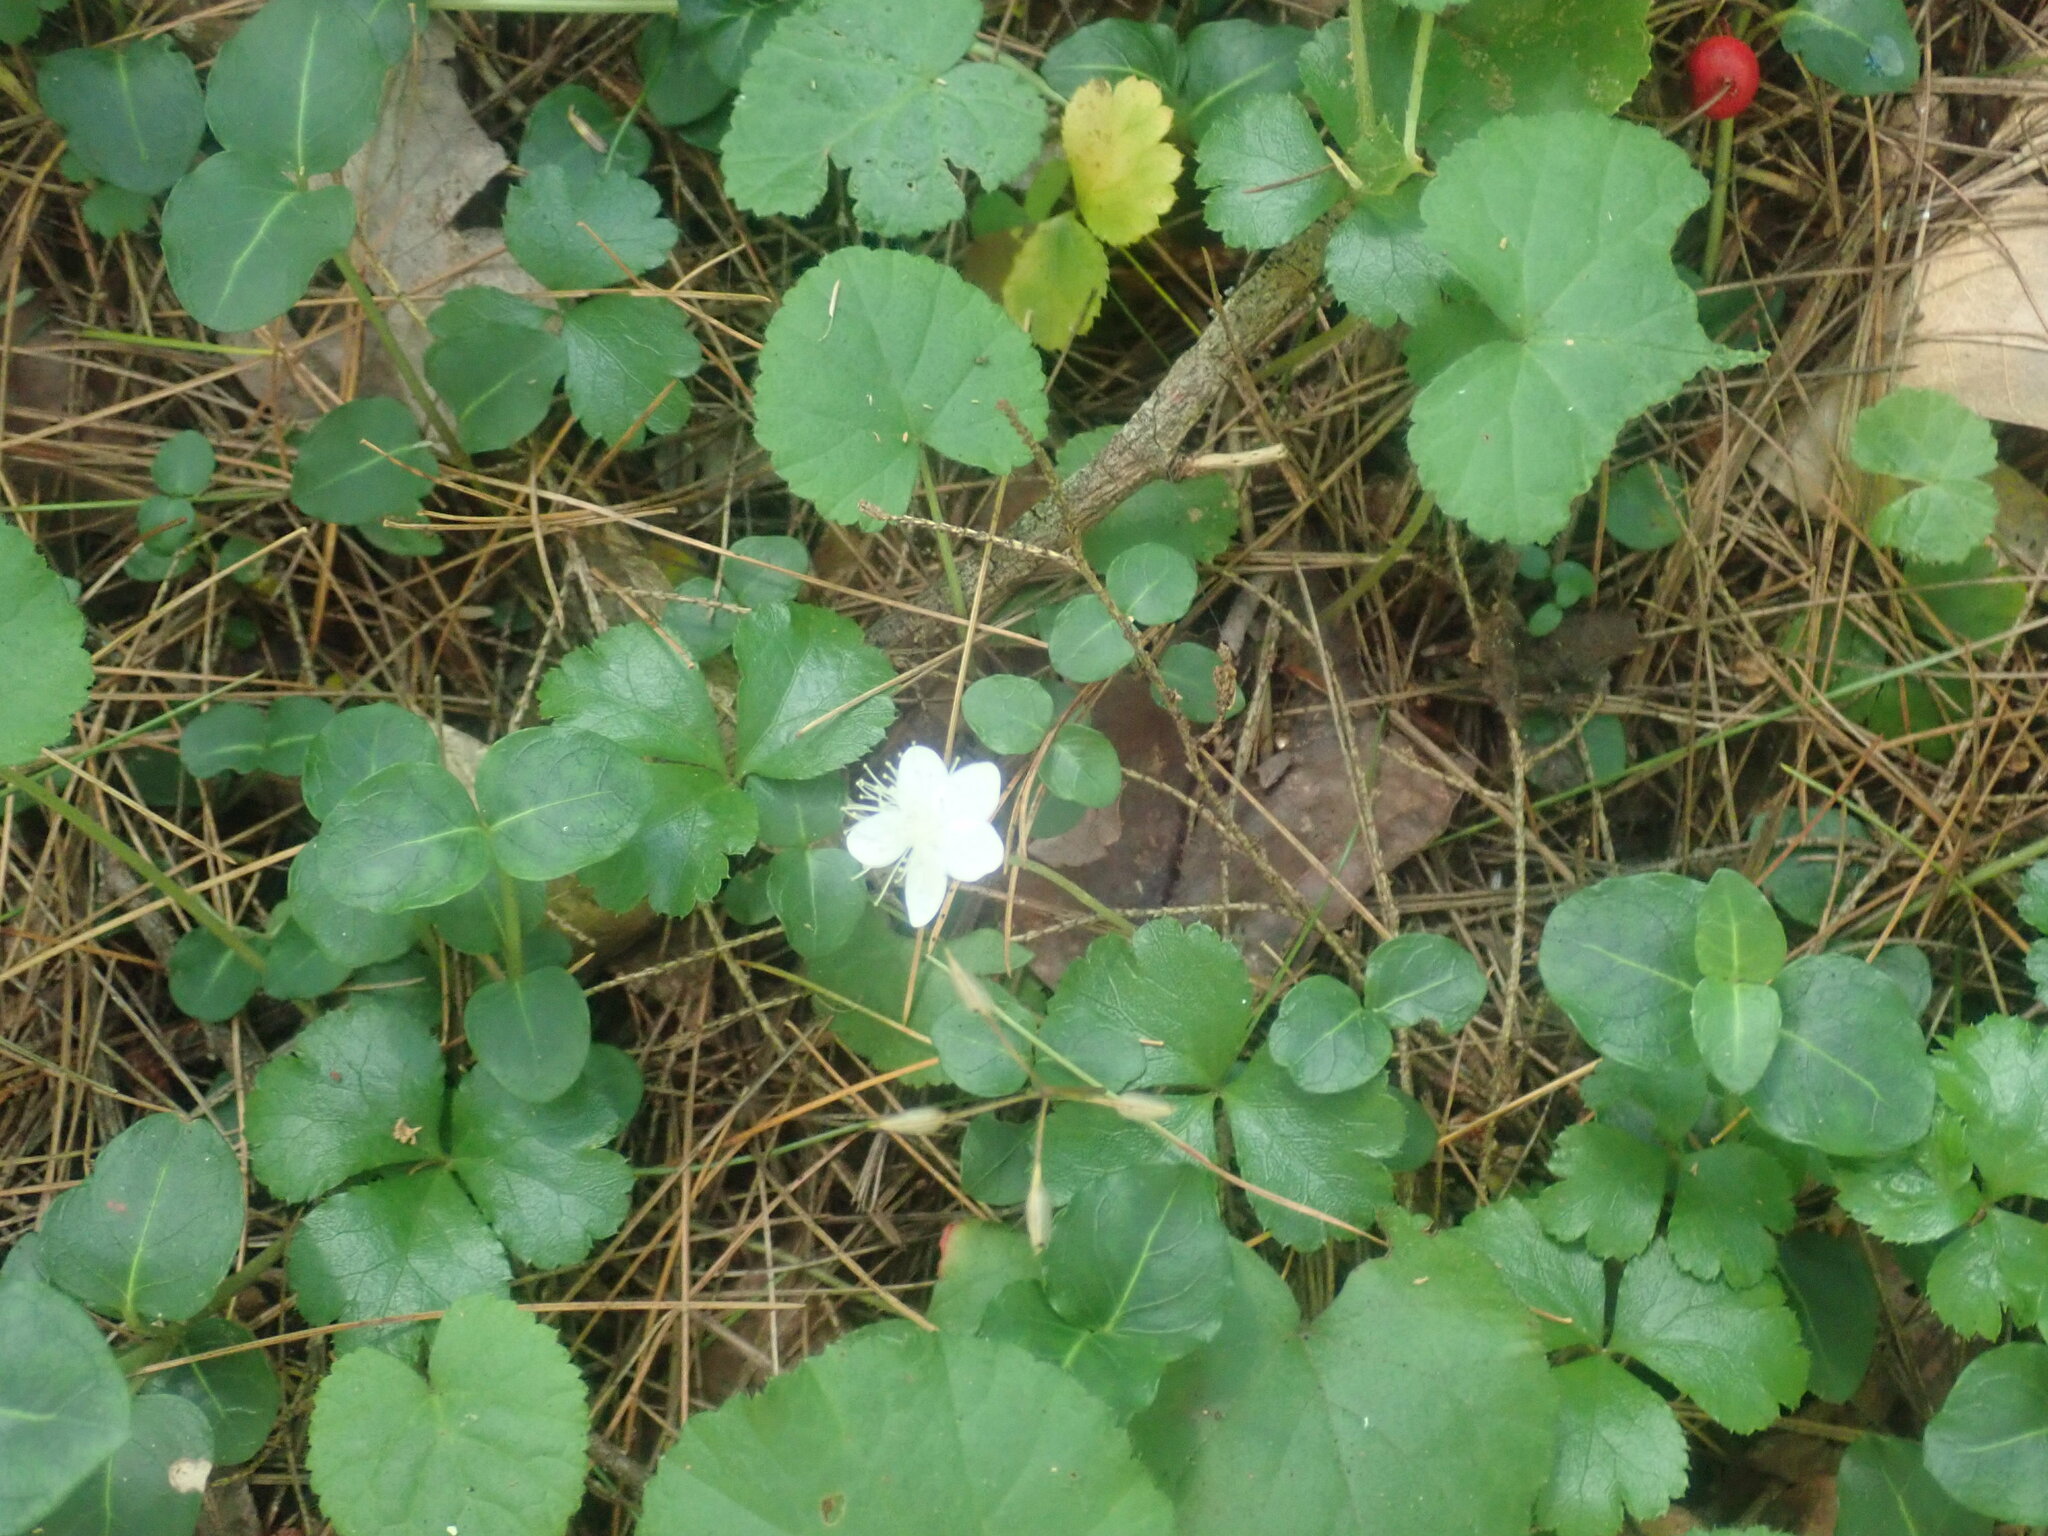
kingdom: Plantae
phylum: Tracheophyta
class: Magnoliopsida
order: Rosales
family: Rosaceae
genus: Dalibarda
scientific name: Dalibarda repens
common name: Dewdrop
